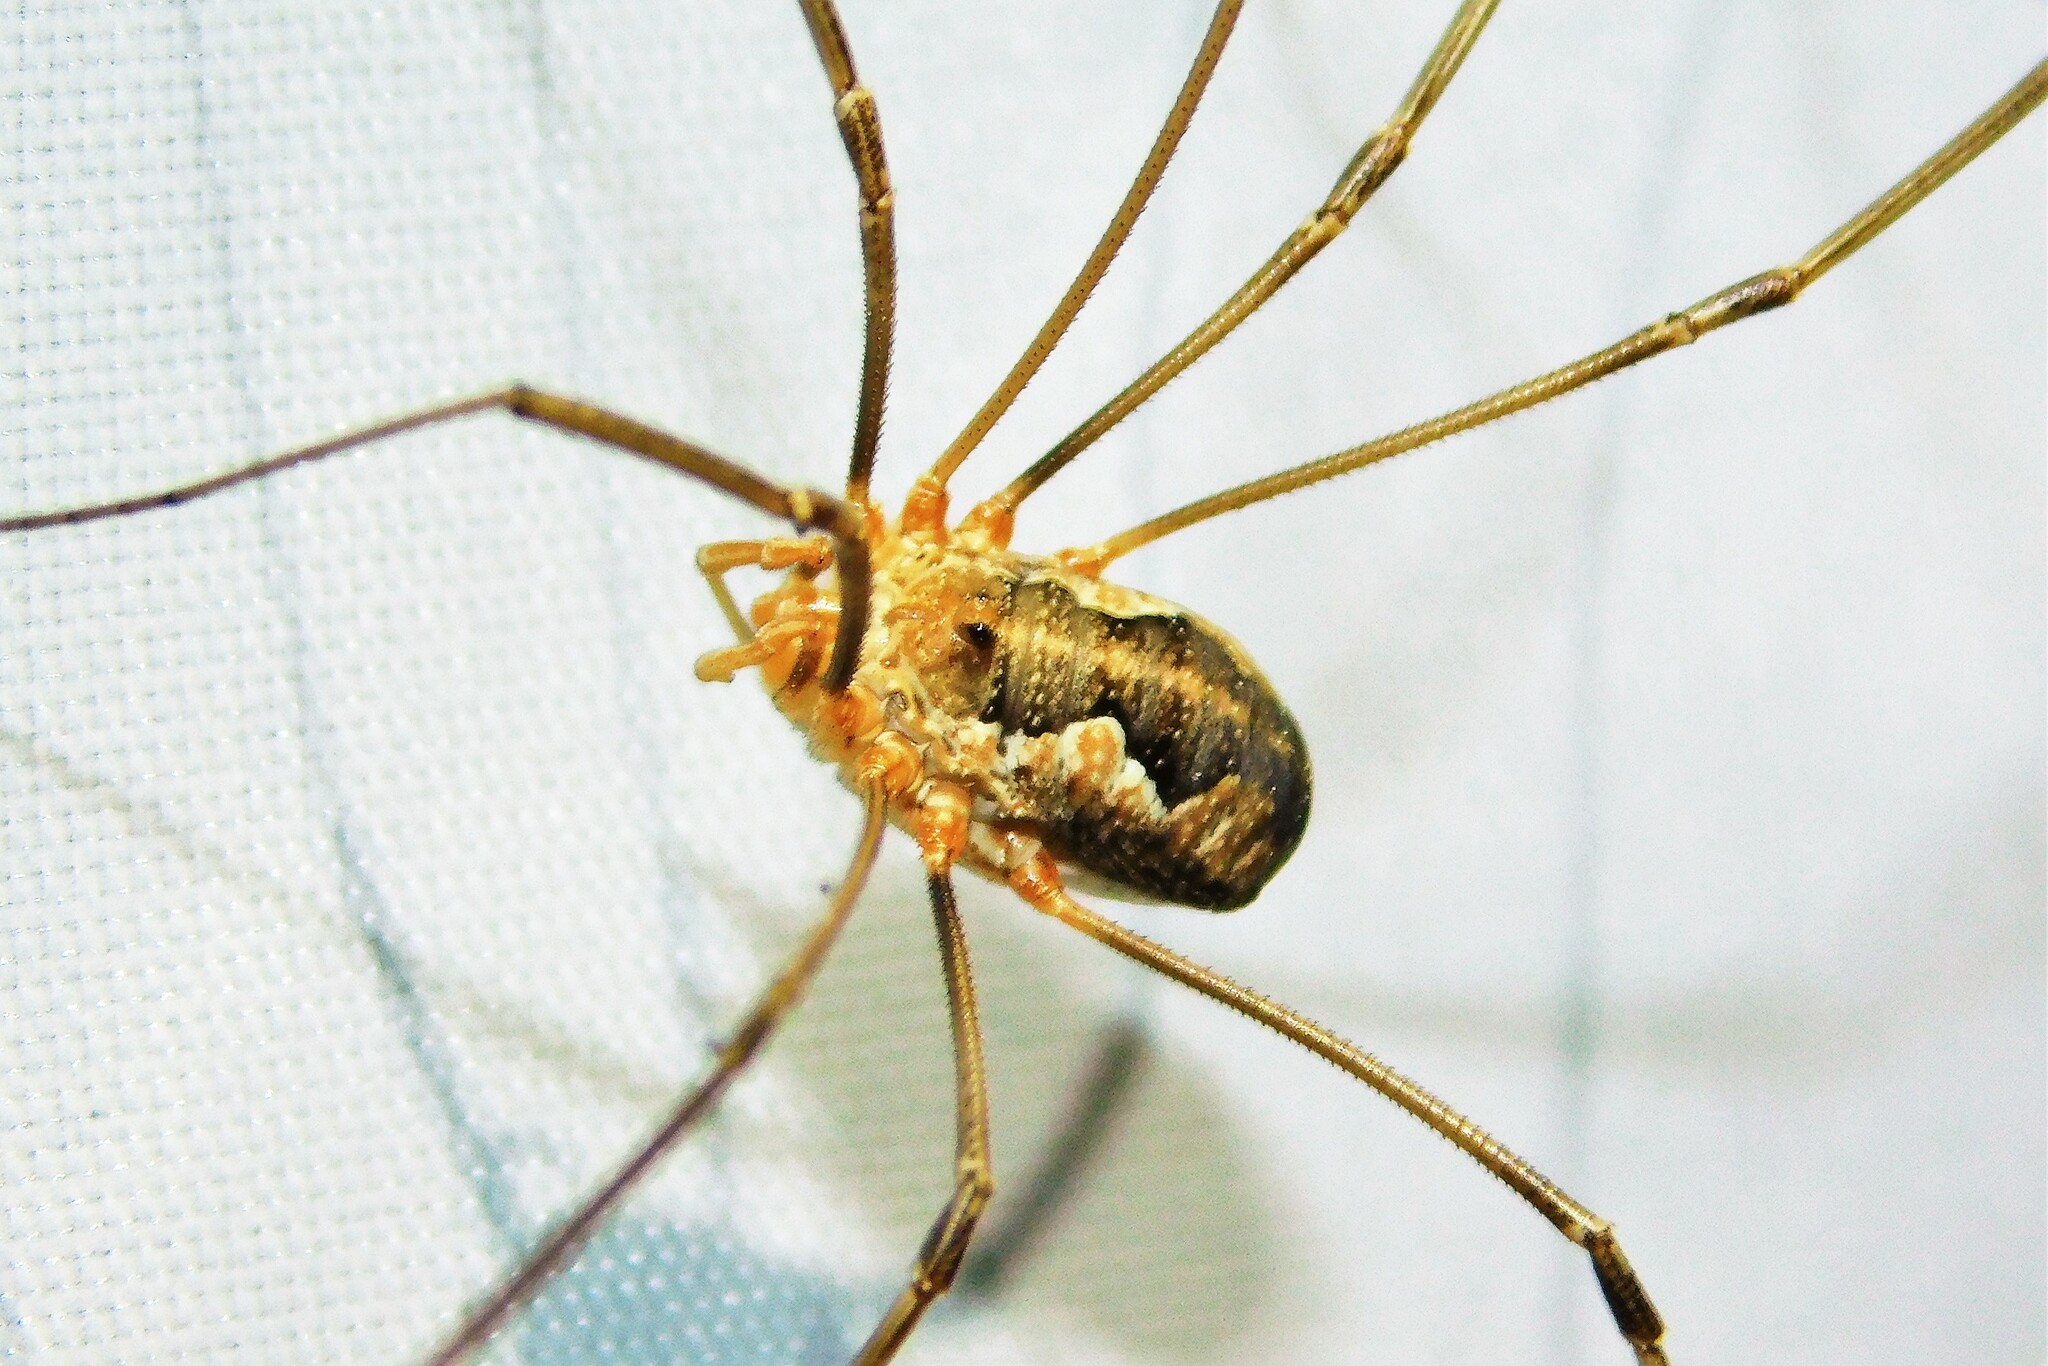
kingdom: Animalia
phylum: Arthropoda
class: Arachnida
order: Opiliones
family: Phalangiidae
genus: Phalangium
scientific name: Phalangium opilio
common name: Daddy longleg
